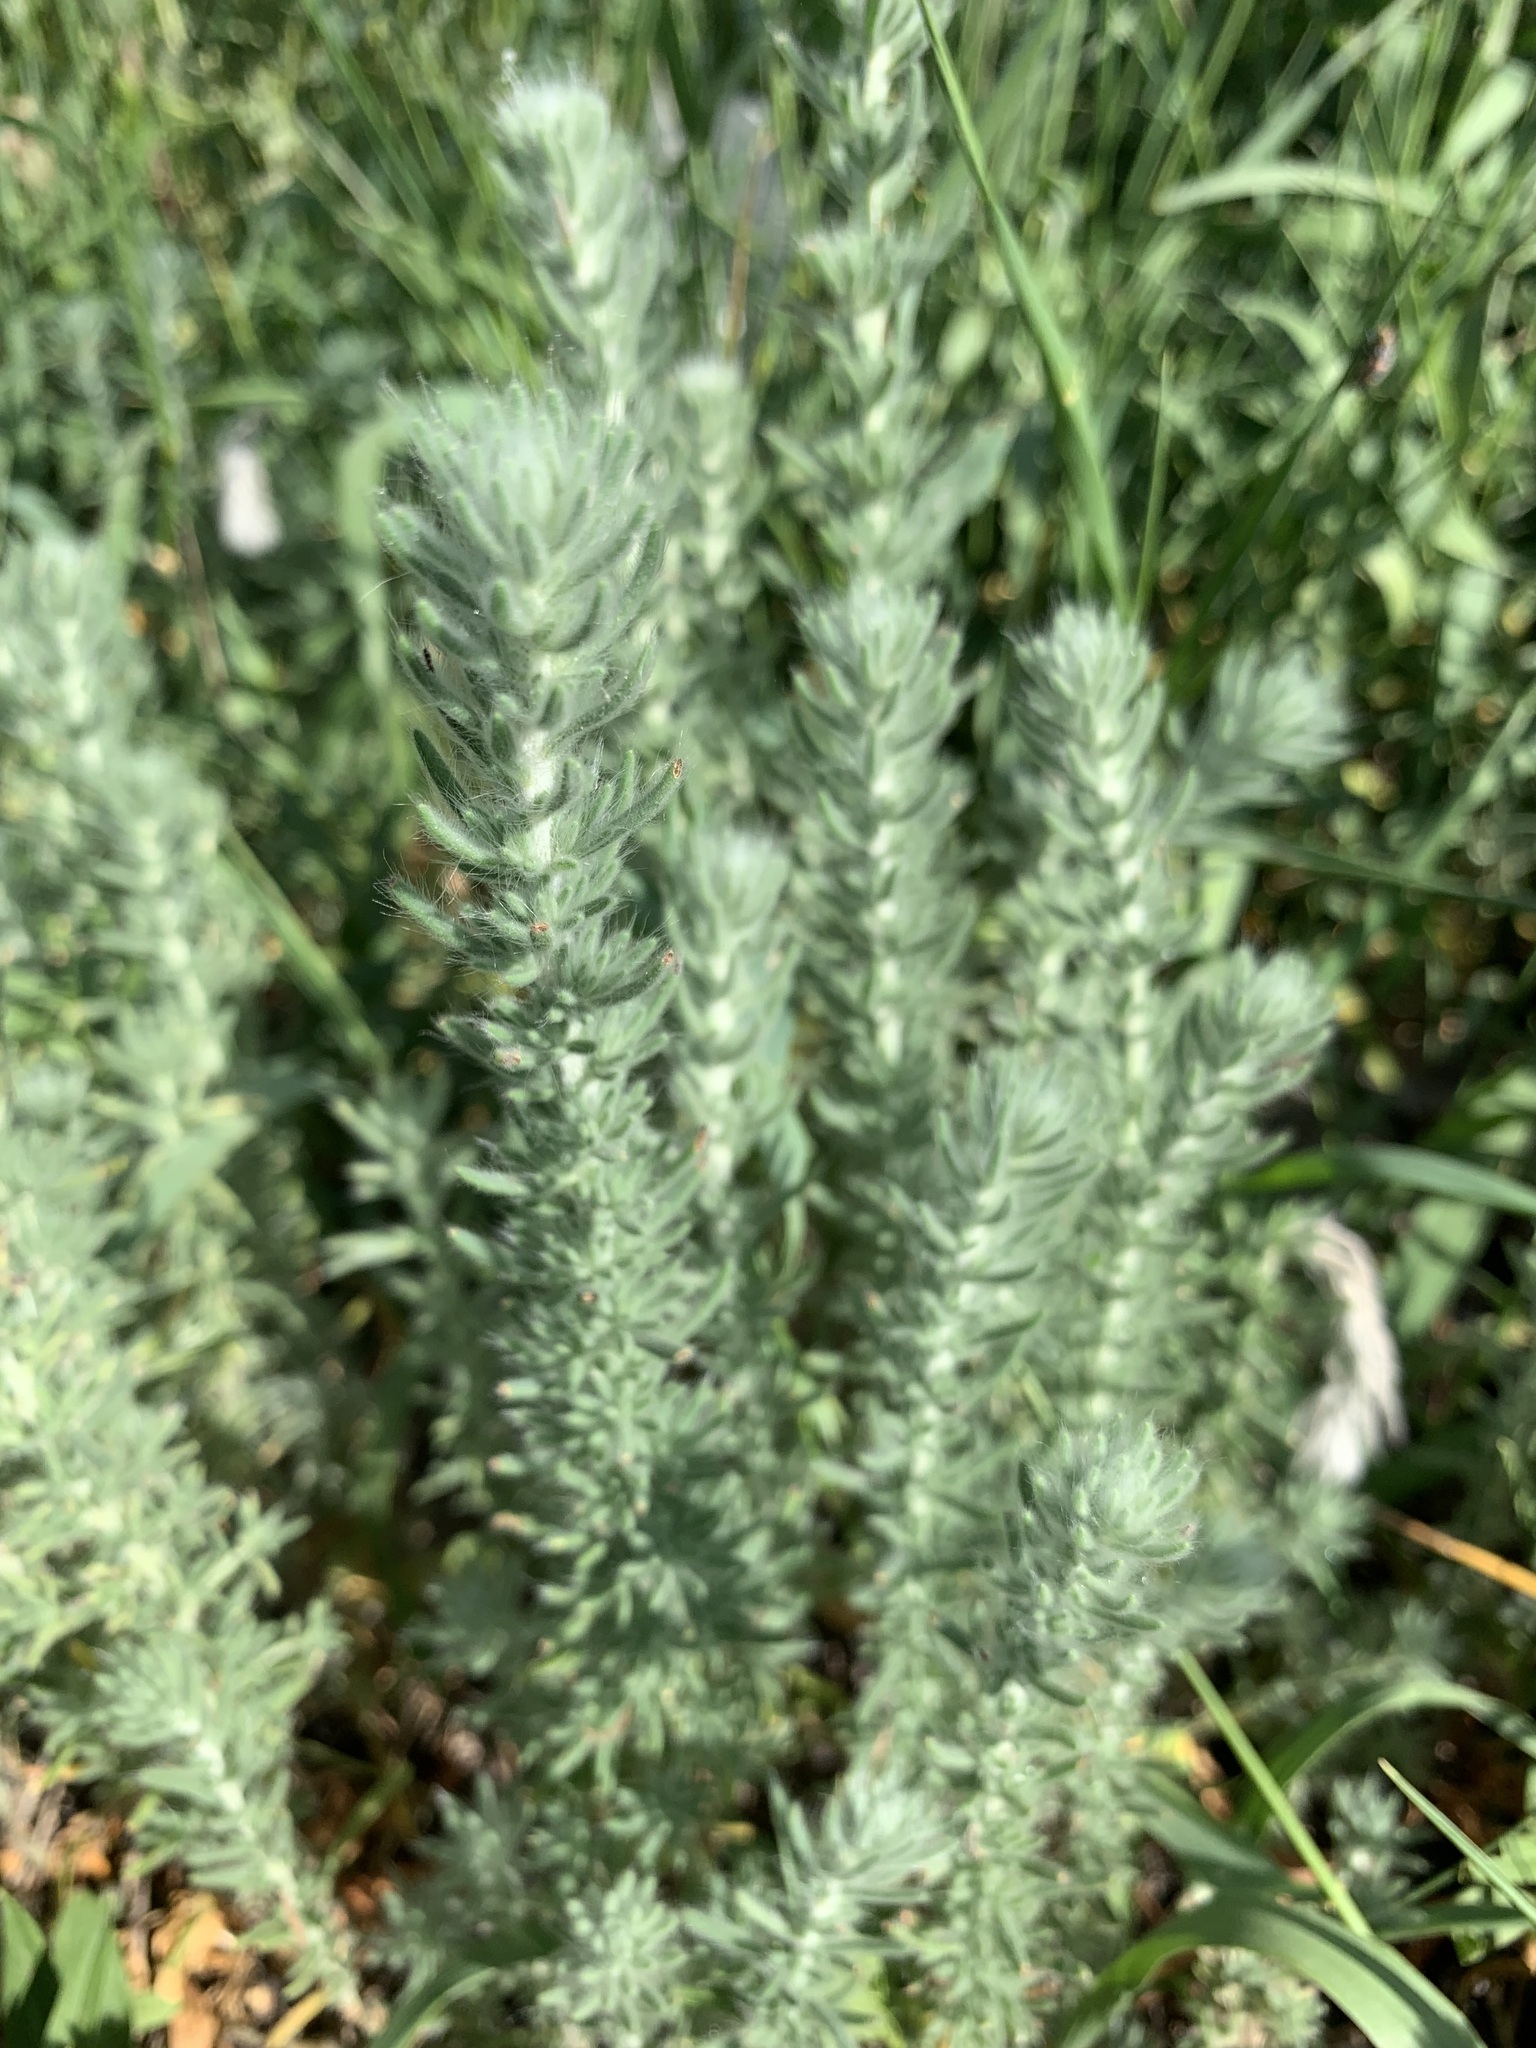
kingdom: Plantae
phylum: Tracheophyta
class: Magnoliopsida
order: Caryophyllales
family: Amaranthaceae
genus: Sedobassia
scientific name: Sedobassia sedoides
